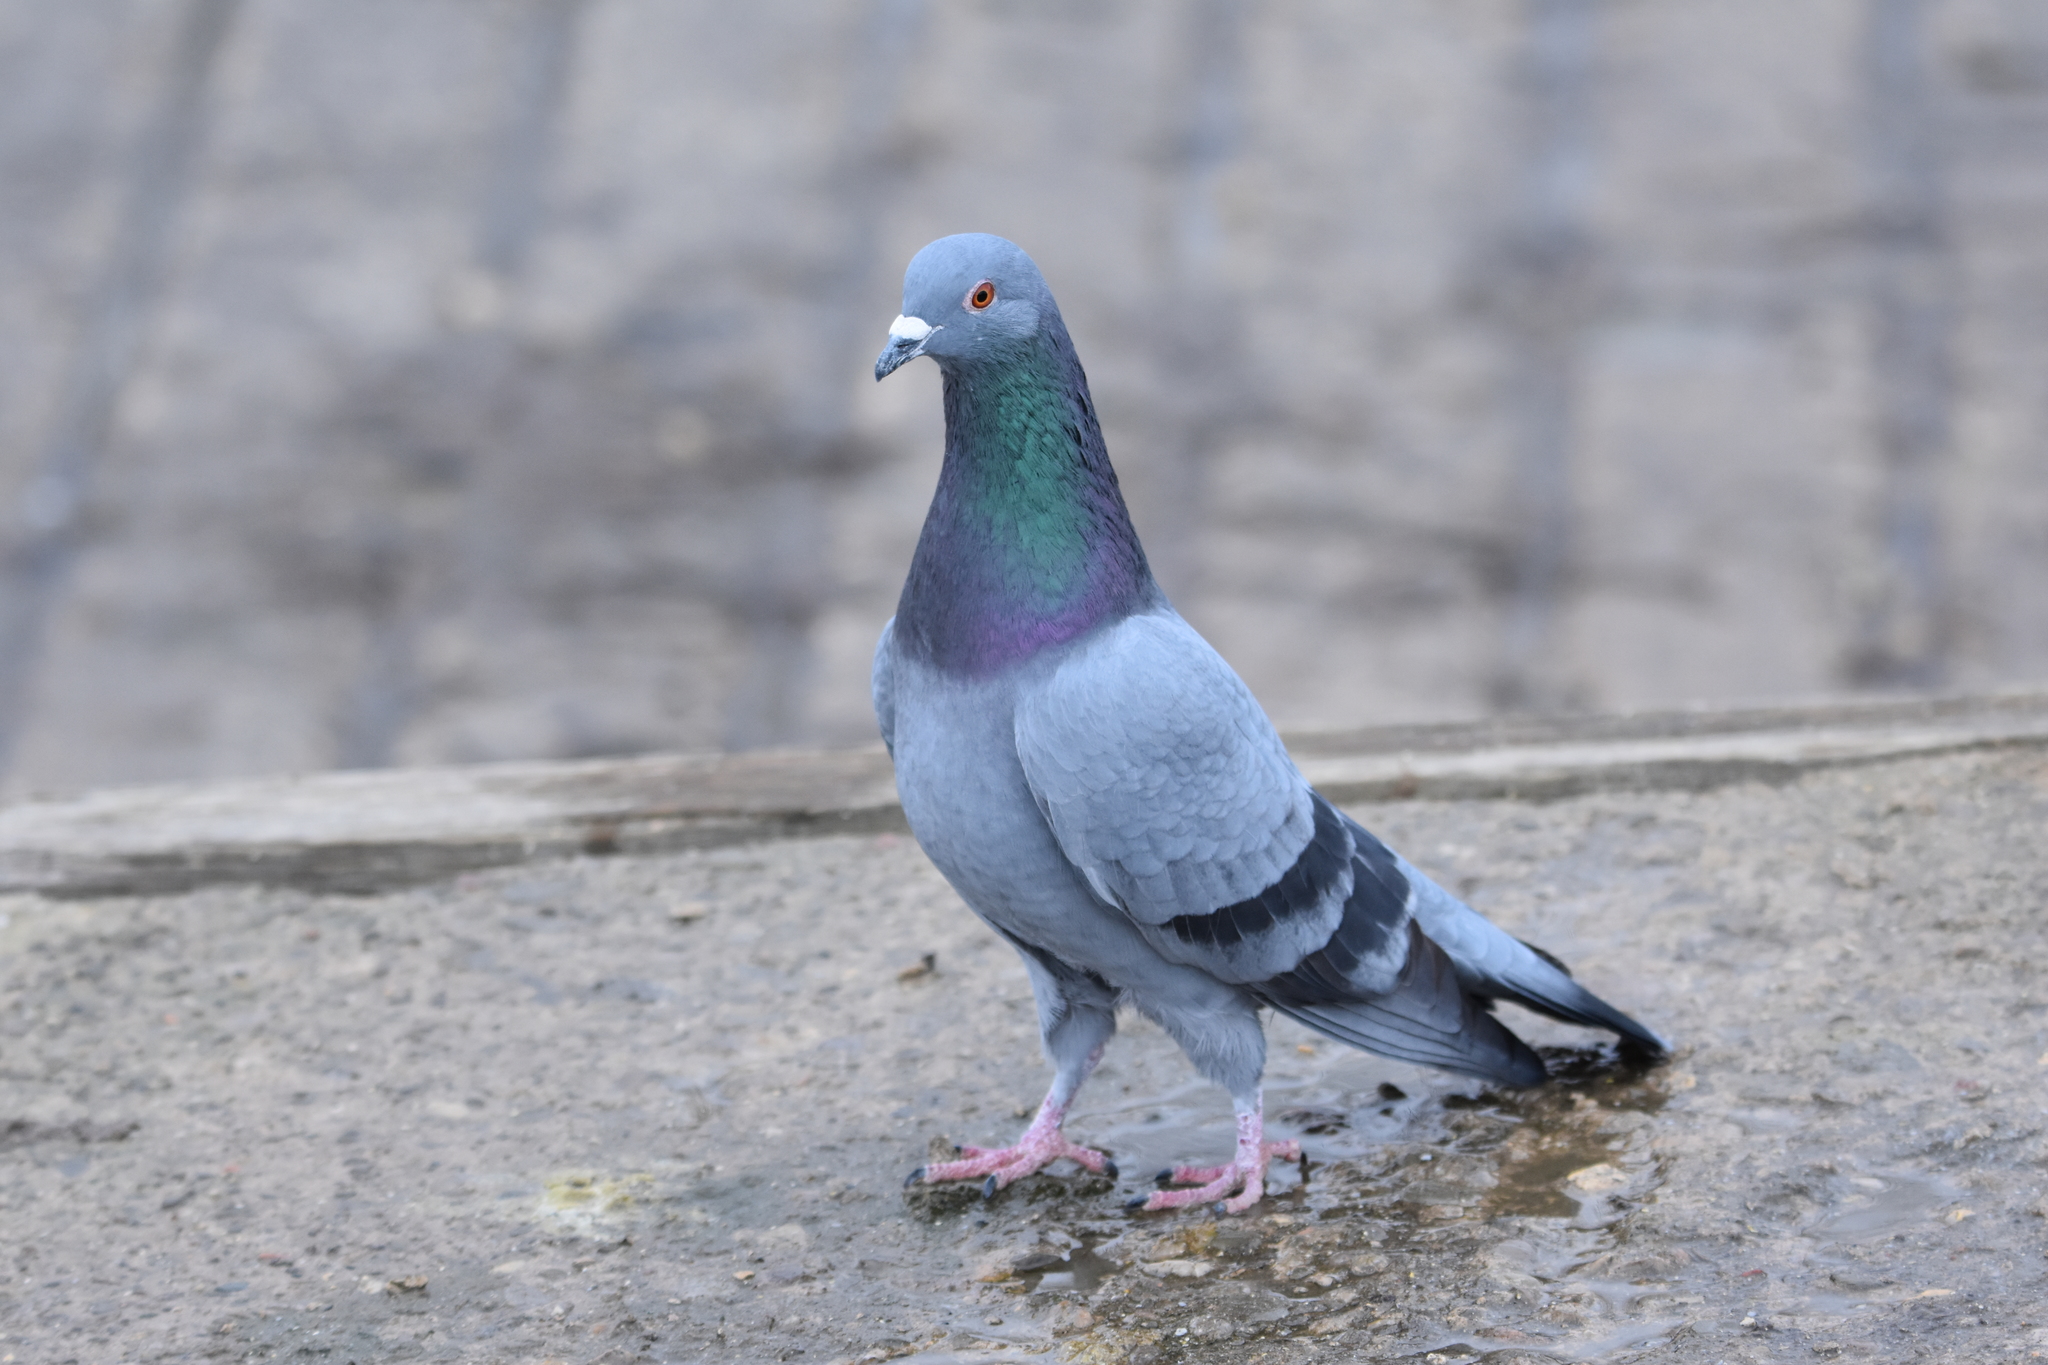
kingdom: Animalia
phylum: Chordata
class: Aves
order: Columbiformes
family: Columbidae
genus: Columba
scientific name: Columba livia
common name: Rock pigeon
